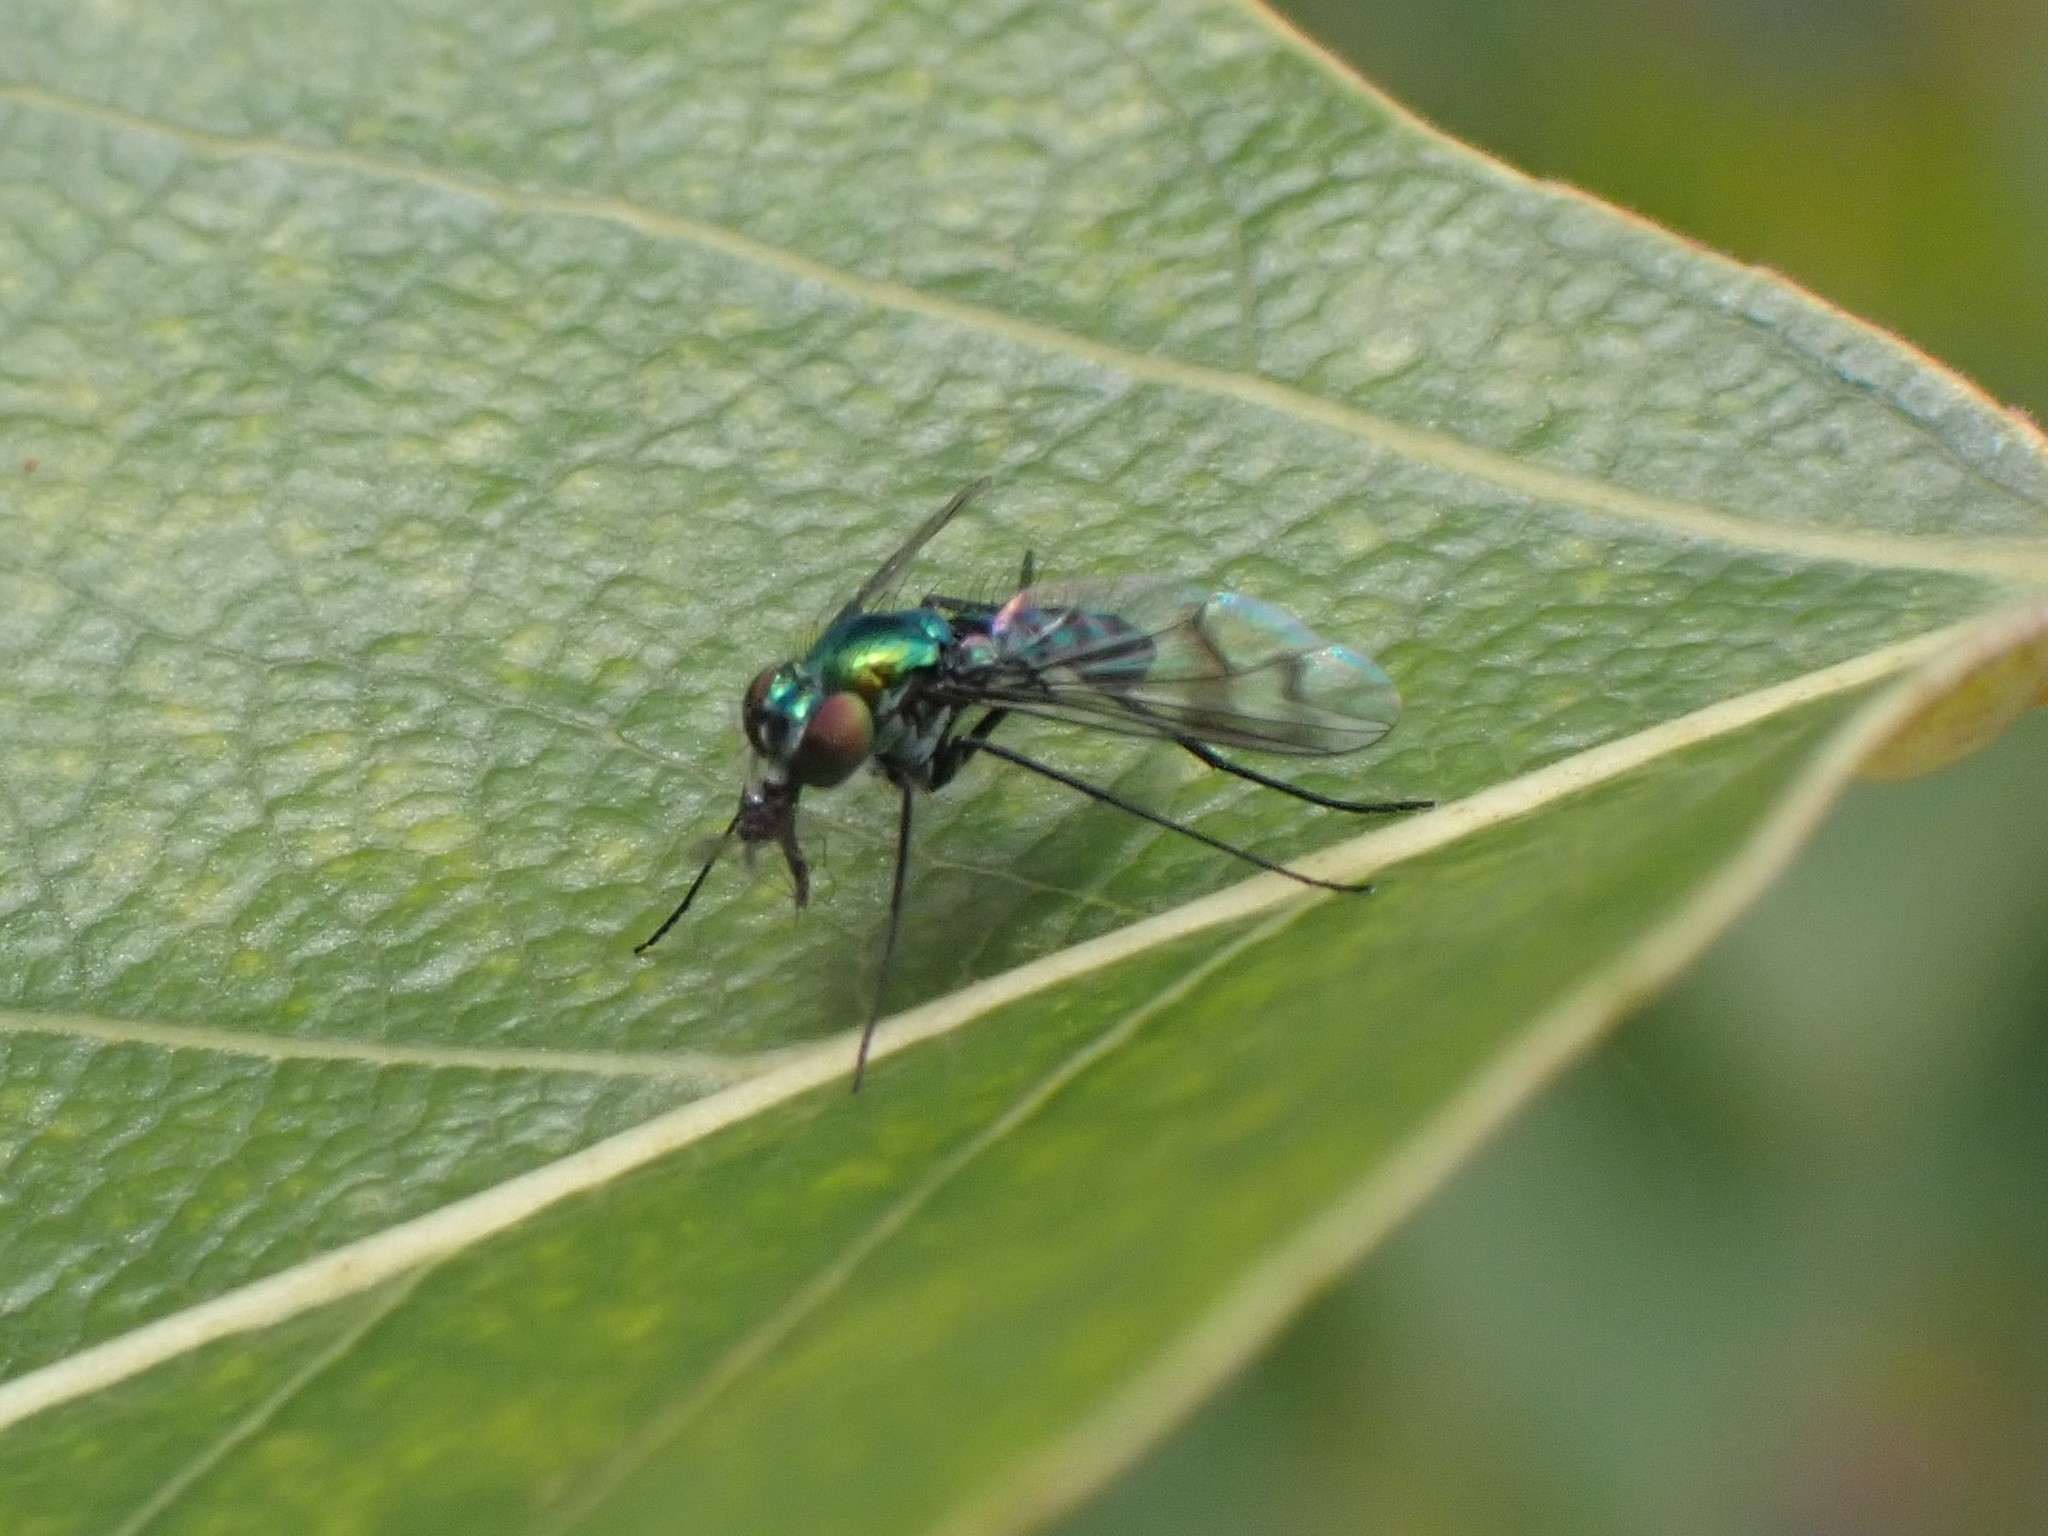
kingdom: Animalia
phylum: Arthropoda
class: Insecta
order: Diptera
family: Dolichopodidae
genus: Condylostylus
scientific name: Condylostylus occidentalis
